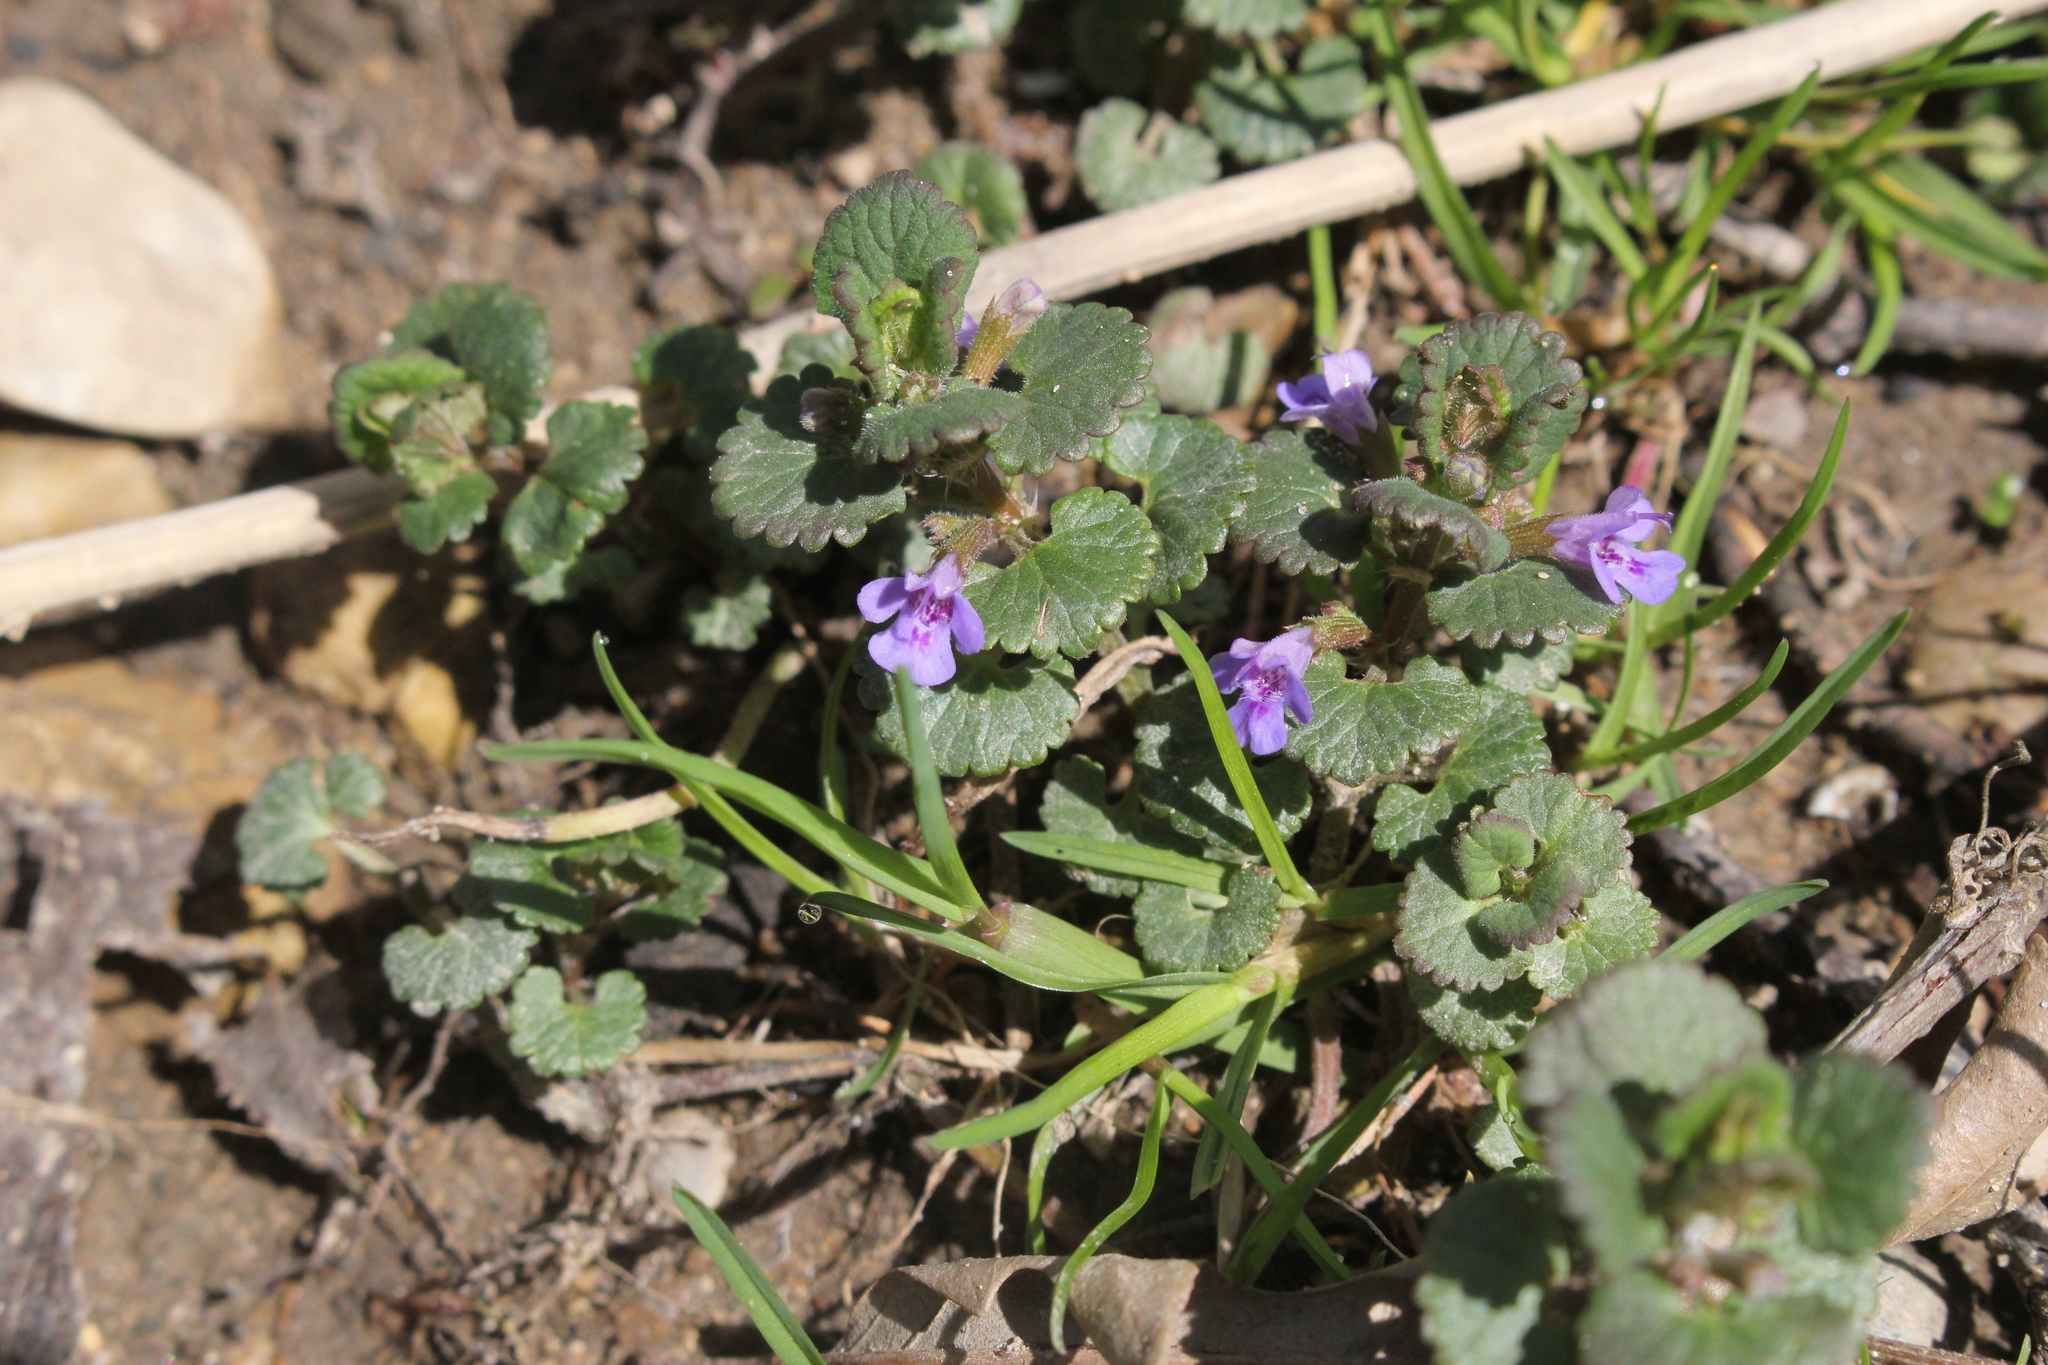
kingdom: Plantae
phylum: Tracheophyta
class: Magnoliopsida
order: Lamiales
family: Lamiaceae
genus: Glechoma
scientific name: Glechoma hederacea
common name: Ground ivy
